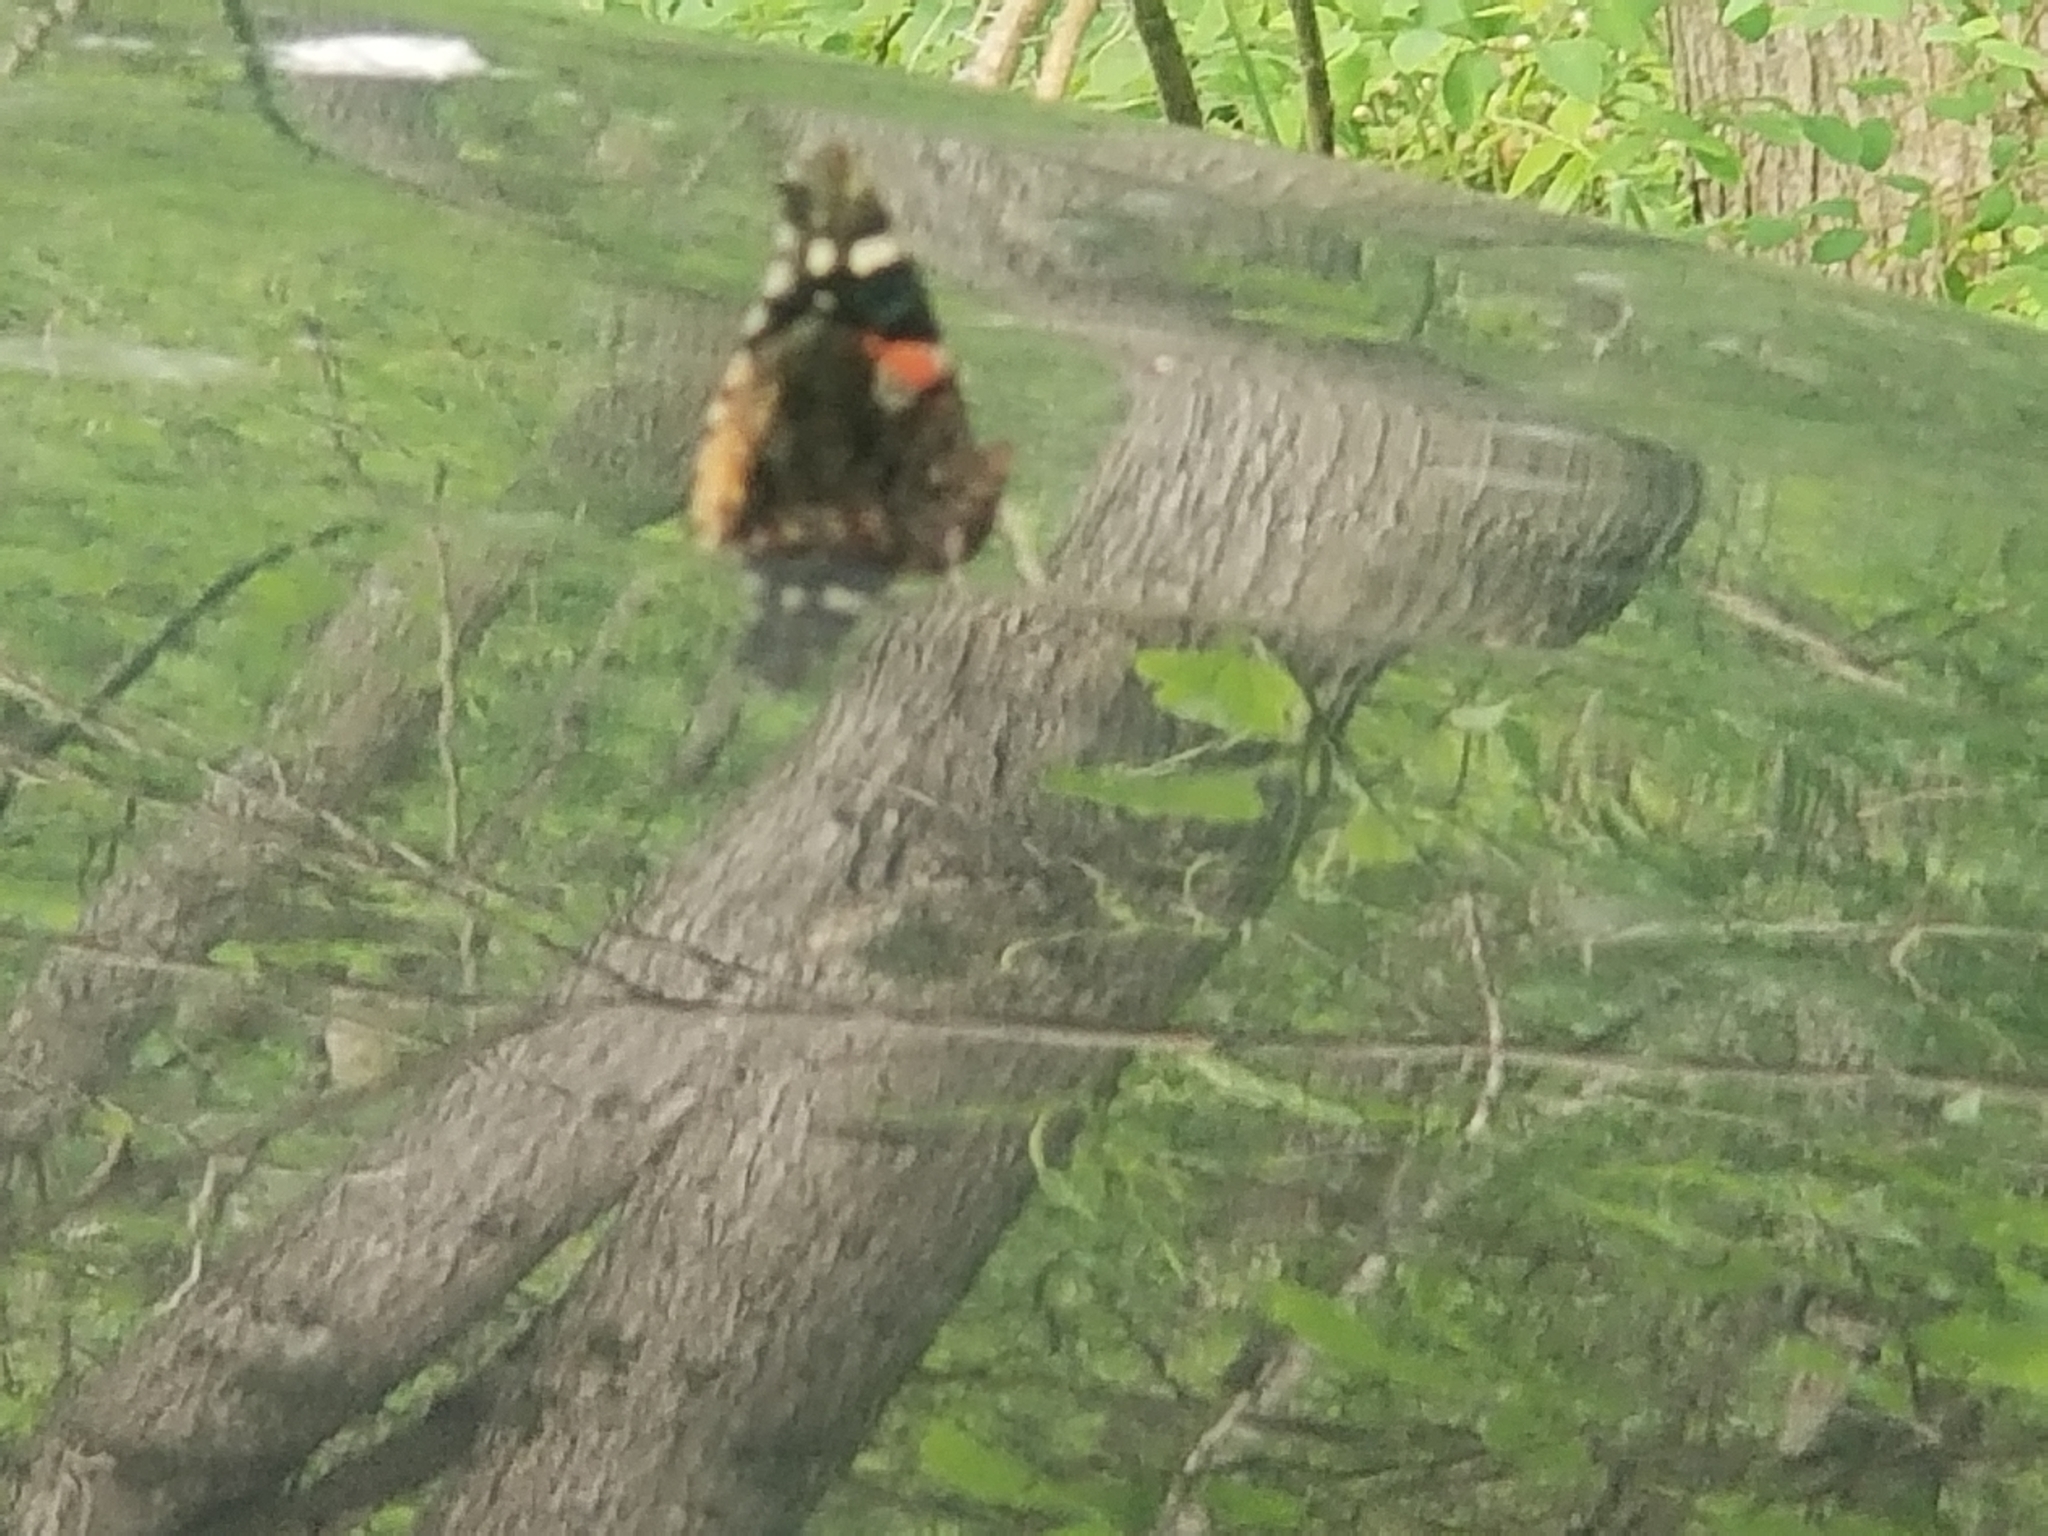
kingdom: Animalia
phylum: Arthropoda
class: Insecta
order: Lepidoptera
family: Nymphalidae
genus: Vanessa
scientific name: Vanessa atalanta
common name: Red admiral
